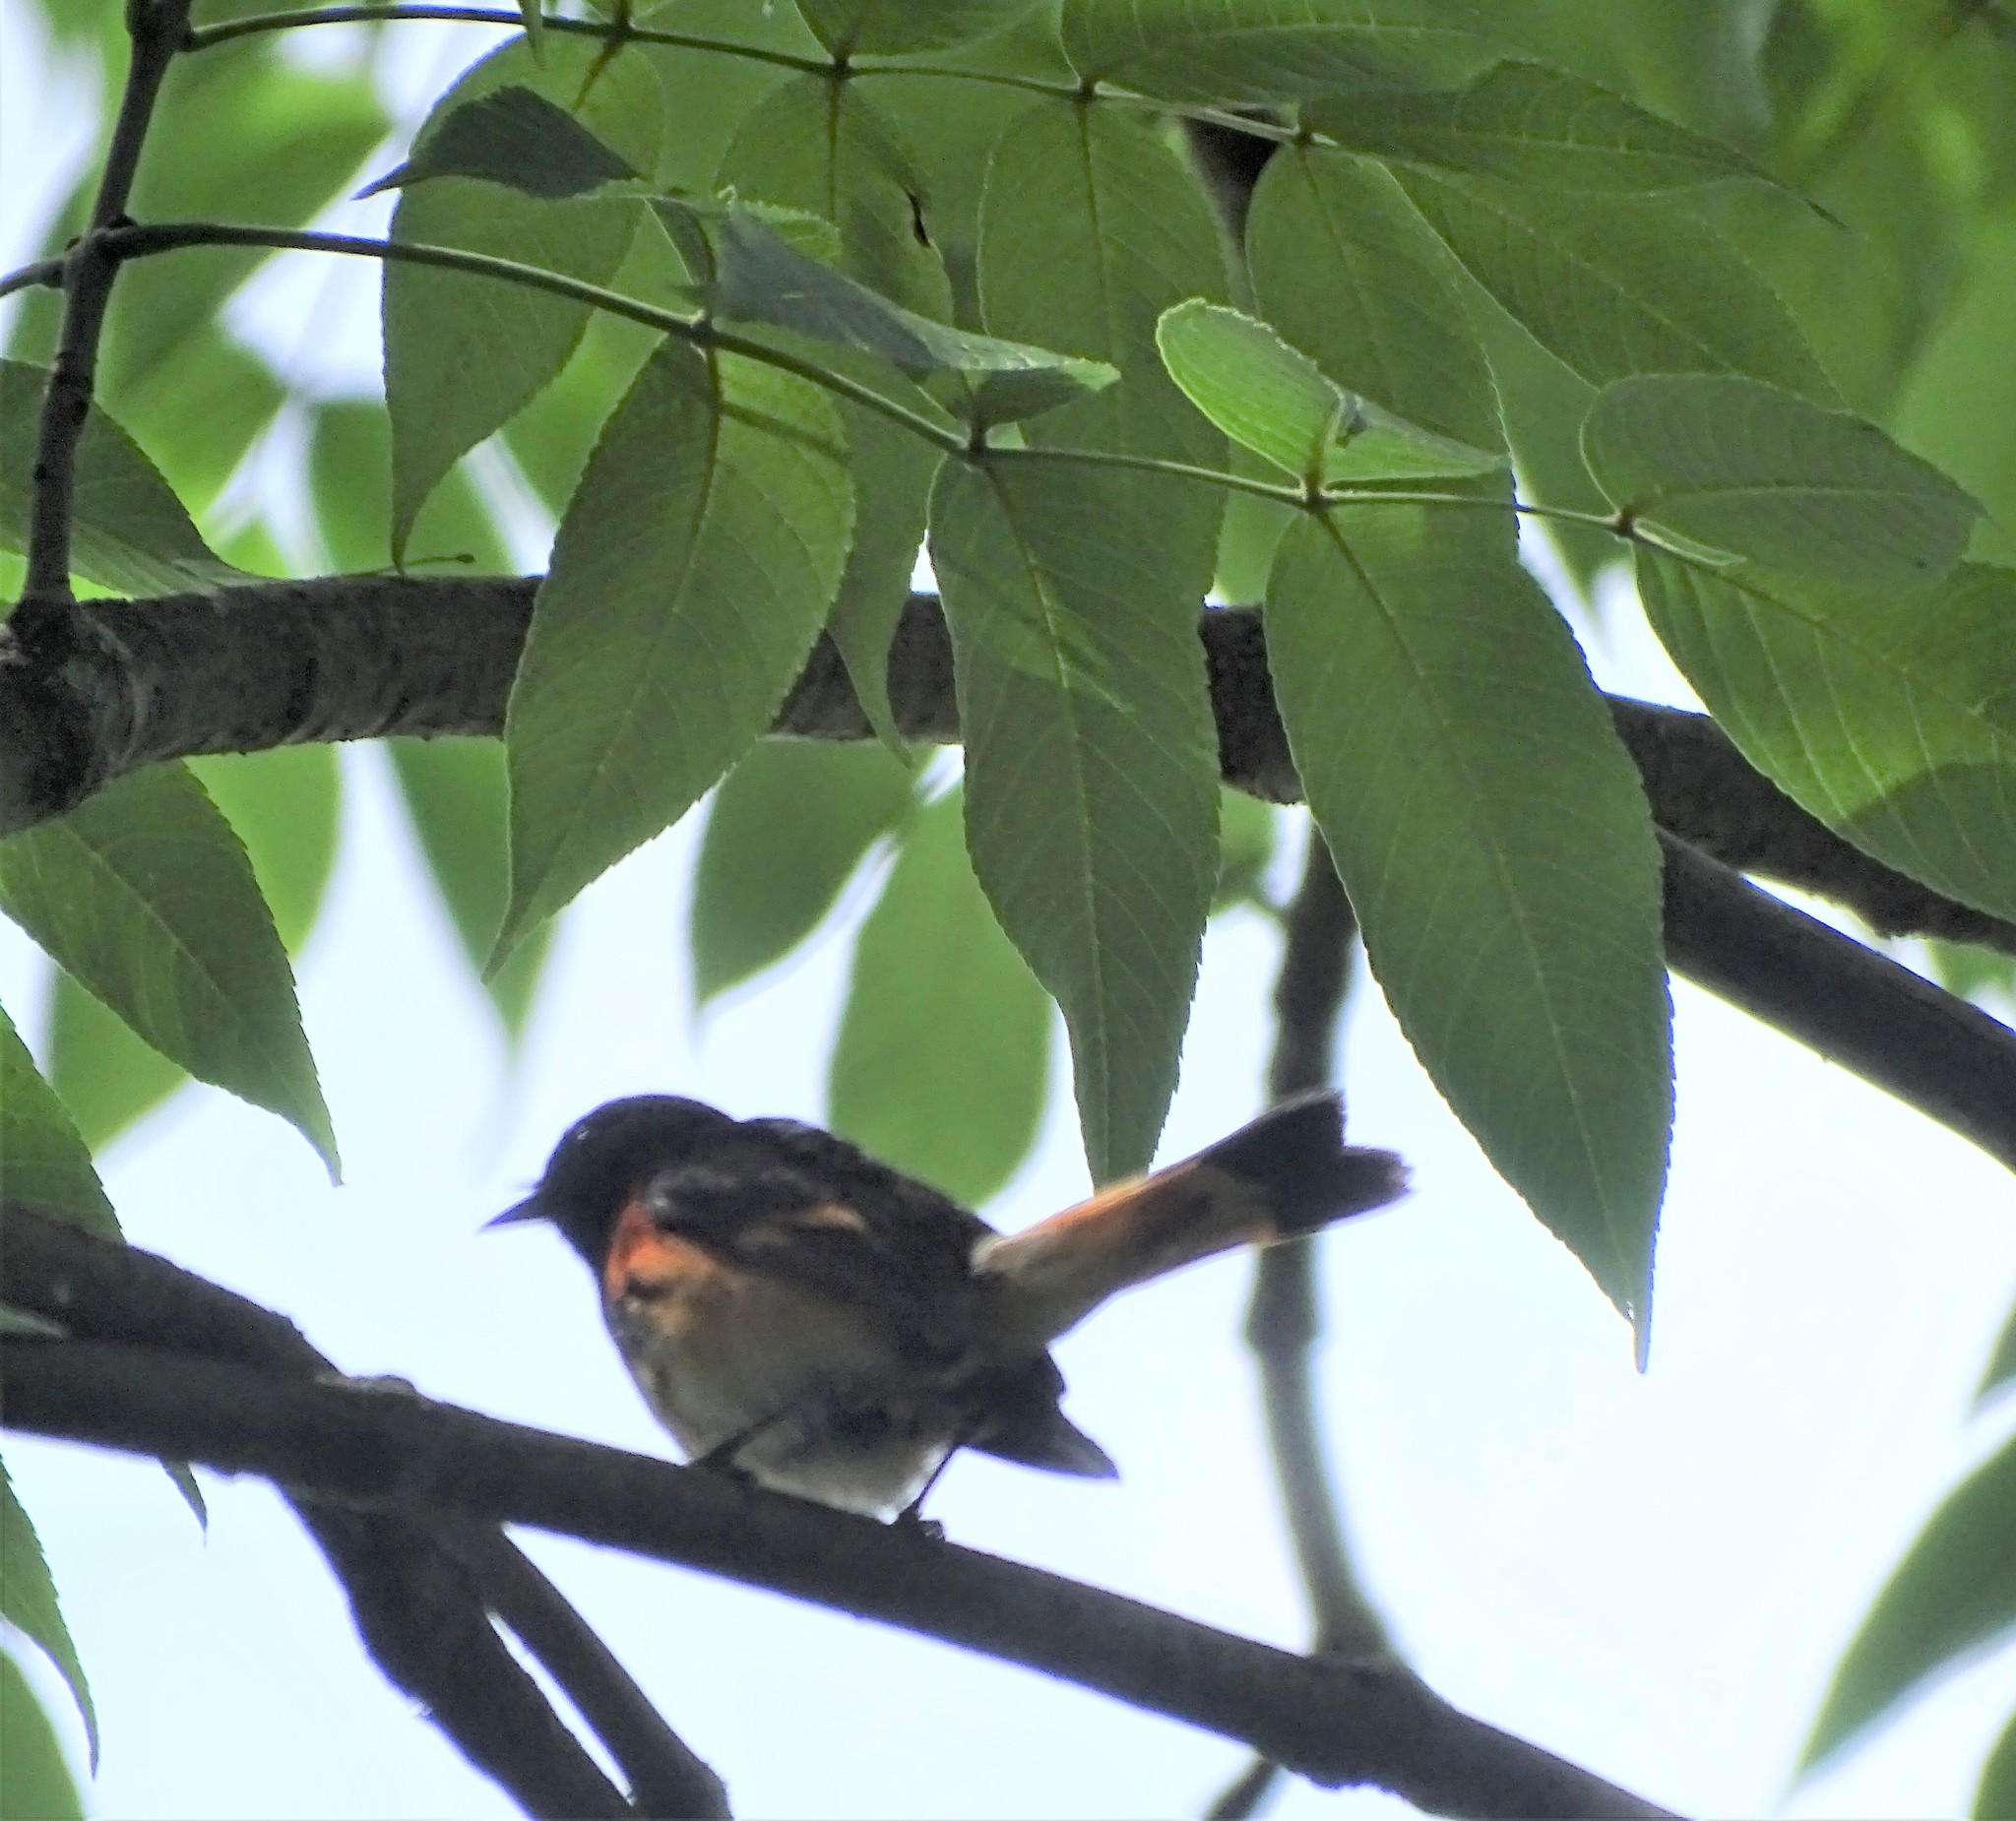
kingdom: Animalia
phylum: Chordata
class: Aves
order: Passeriformes
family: Parulidae
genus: Setophaga
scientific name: Setophaga ruticilla
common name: American redstart
